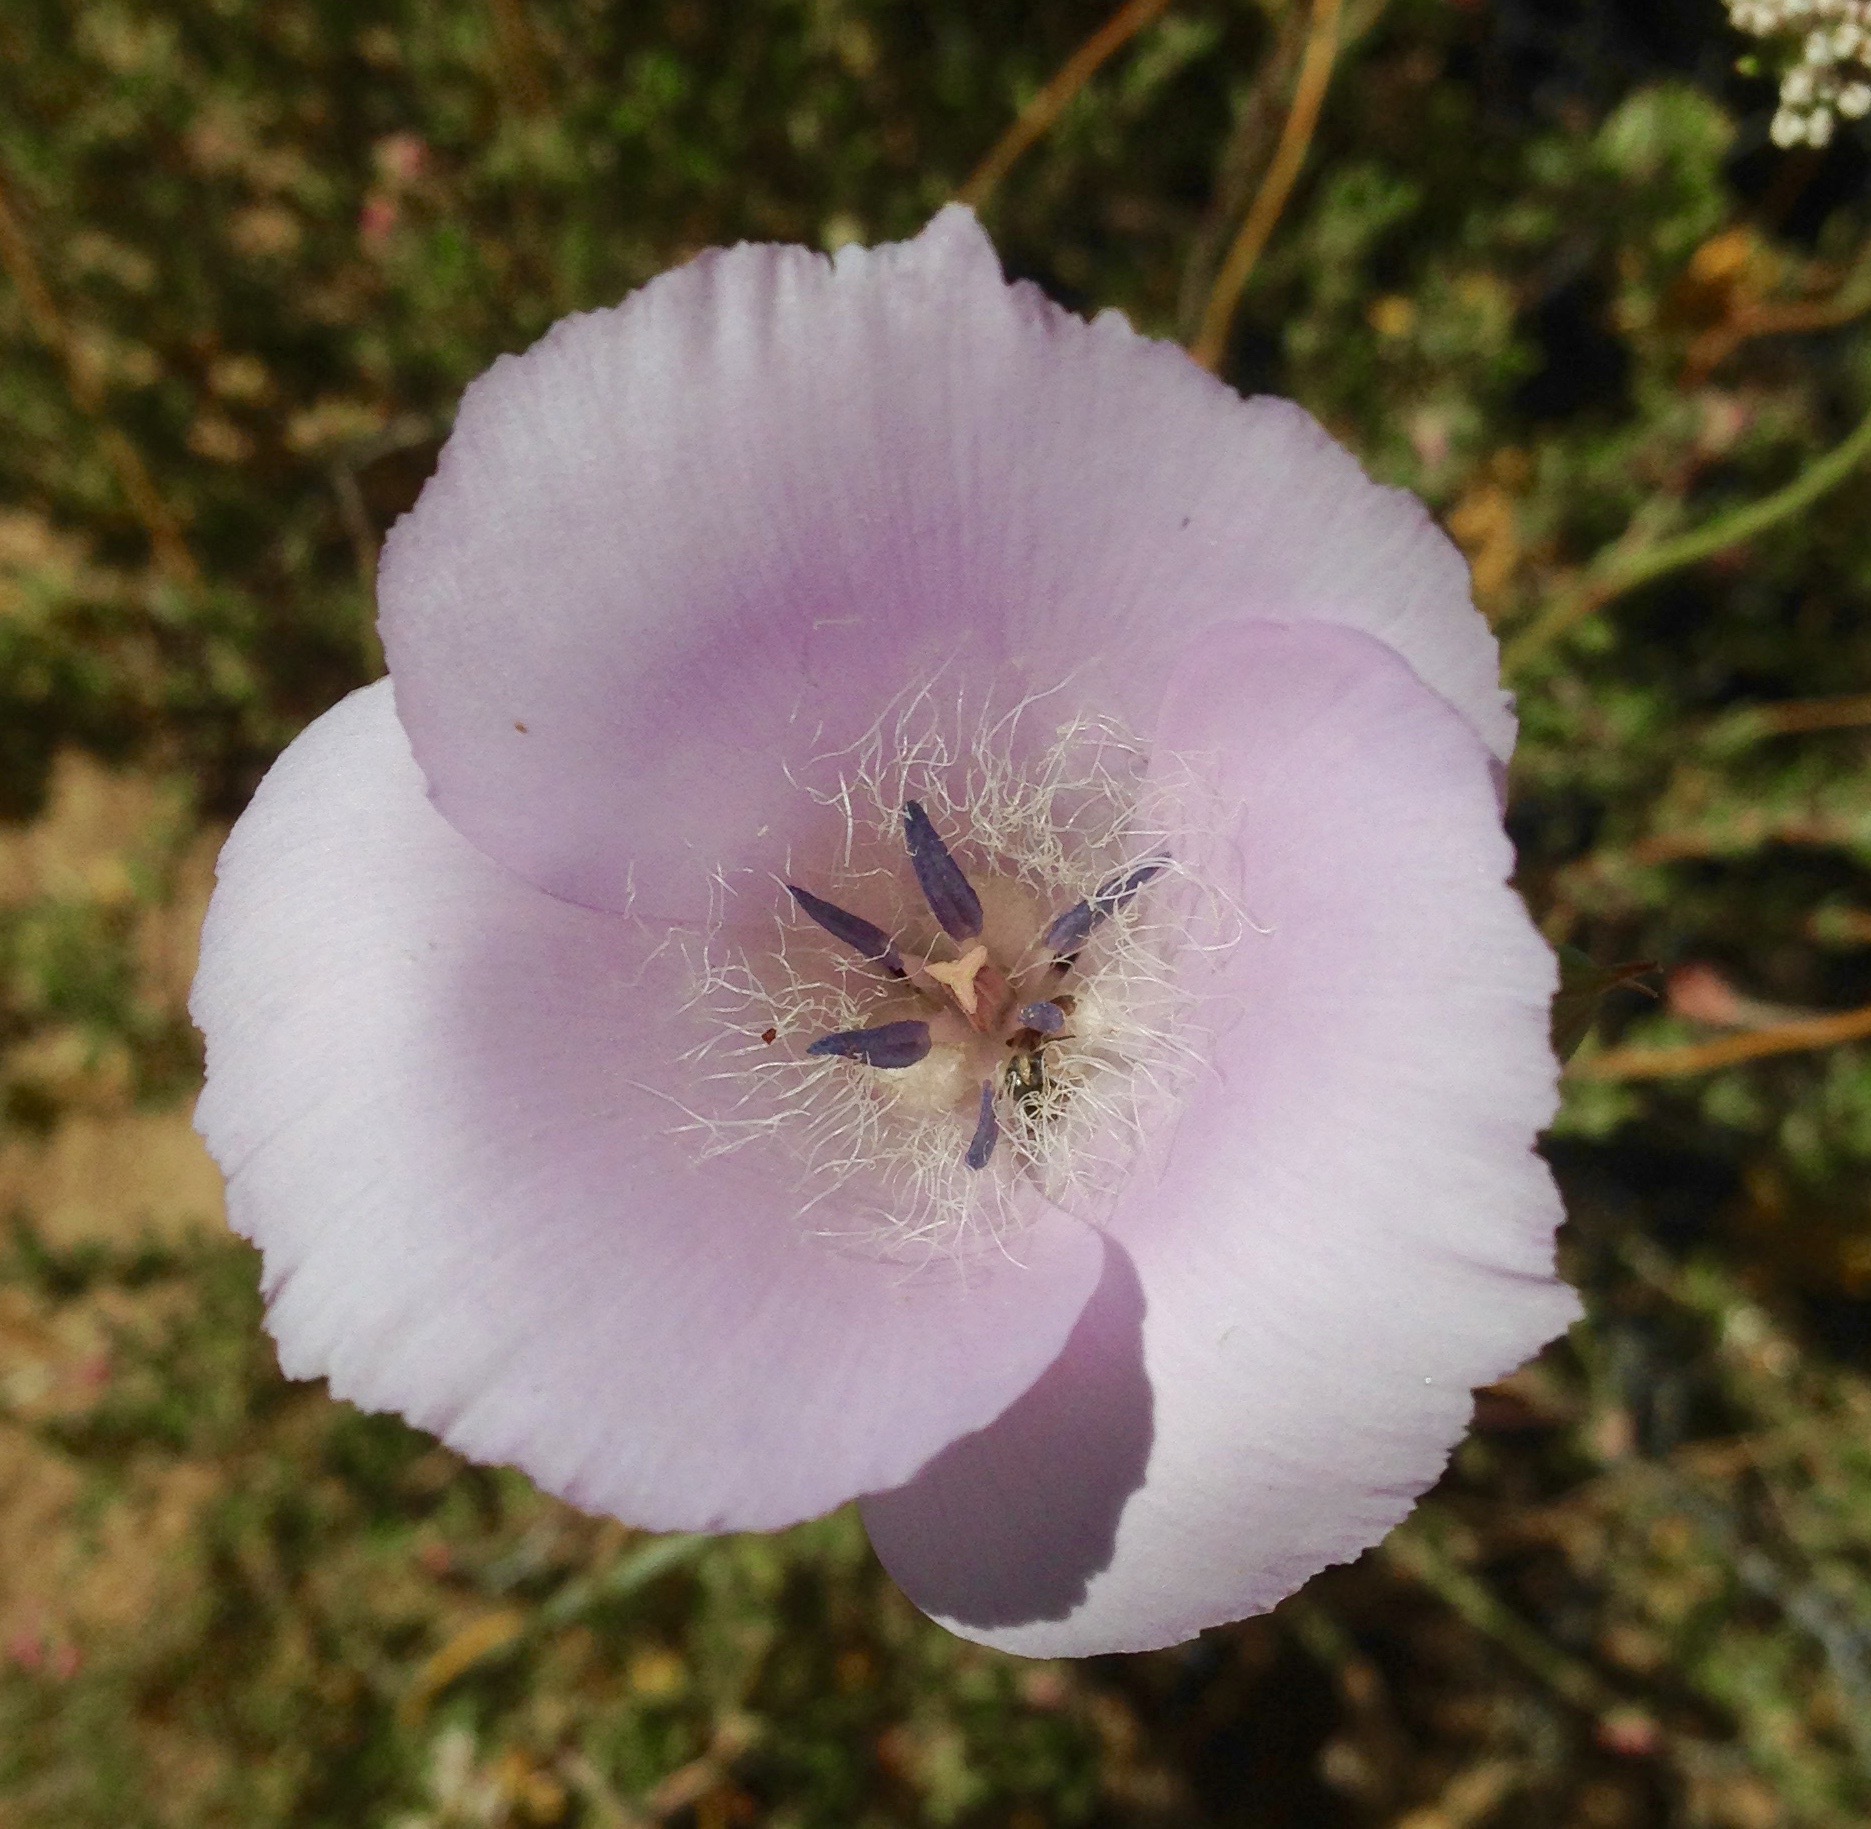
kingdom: Plantae
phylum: Tracheophyta
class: Liliopsida
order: Liliales
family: Liliaceae
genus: Calochortus
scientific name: Calochortus splendens
